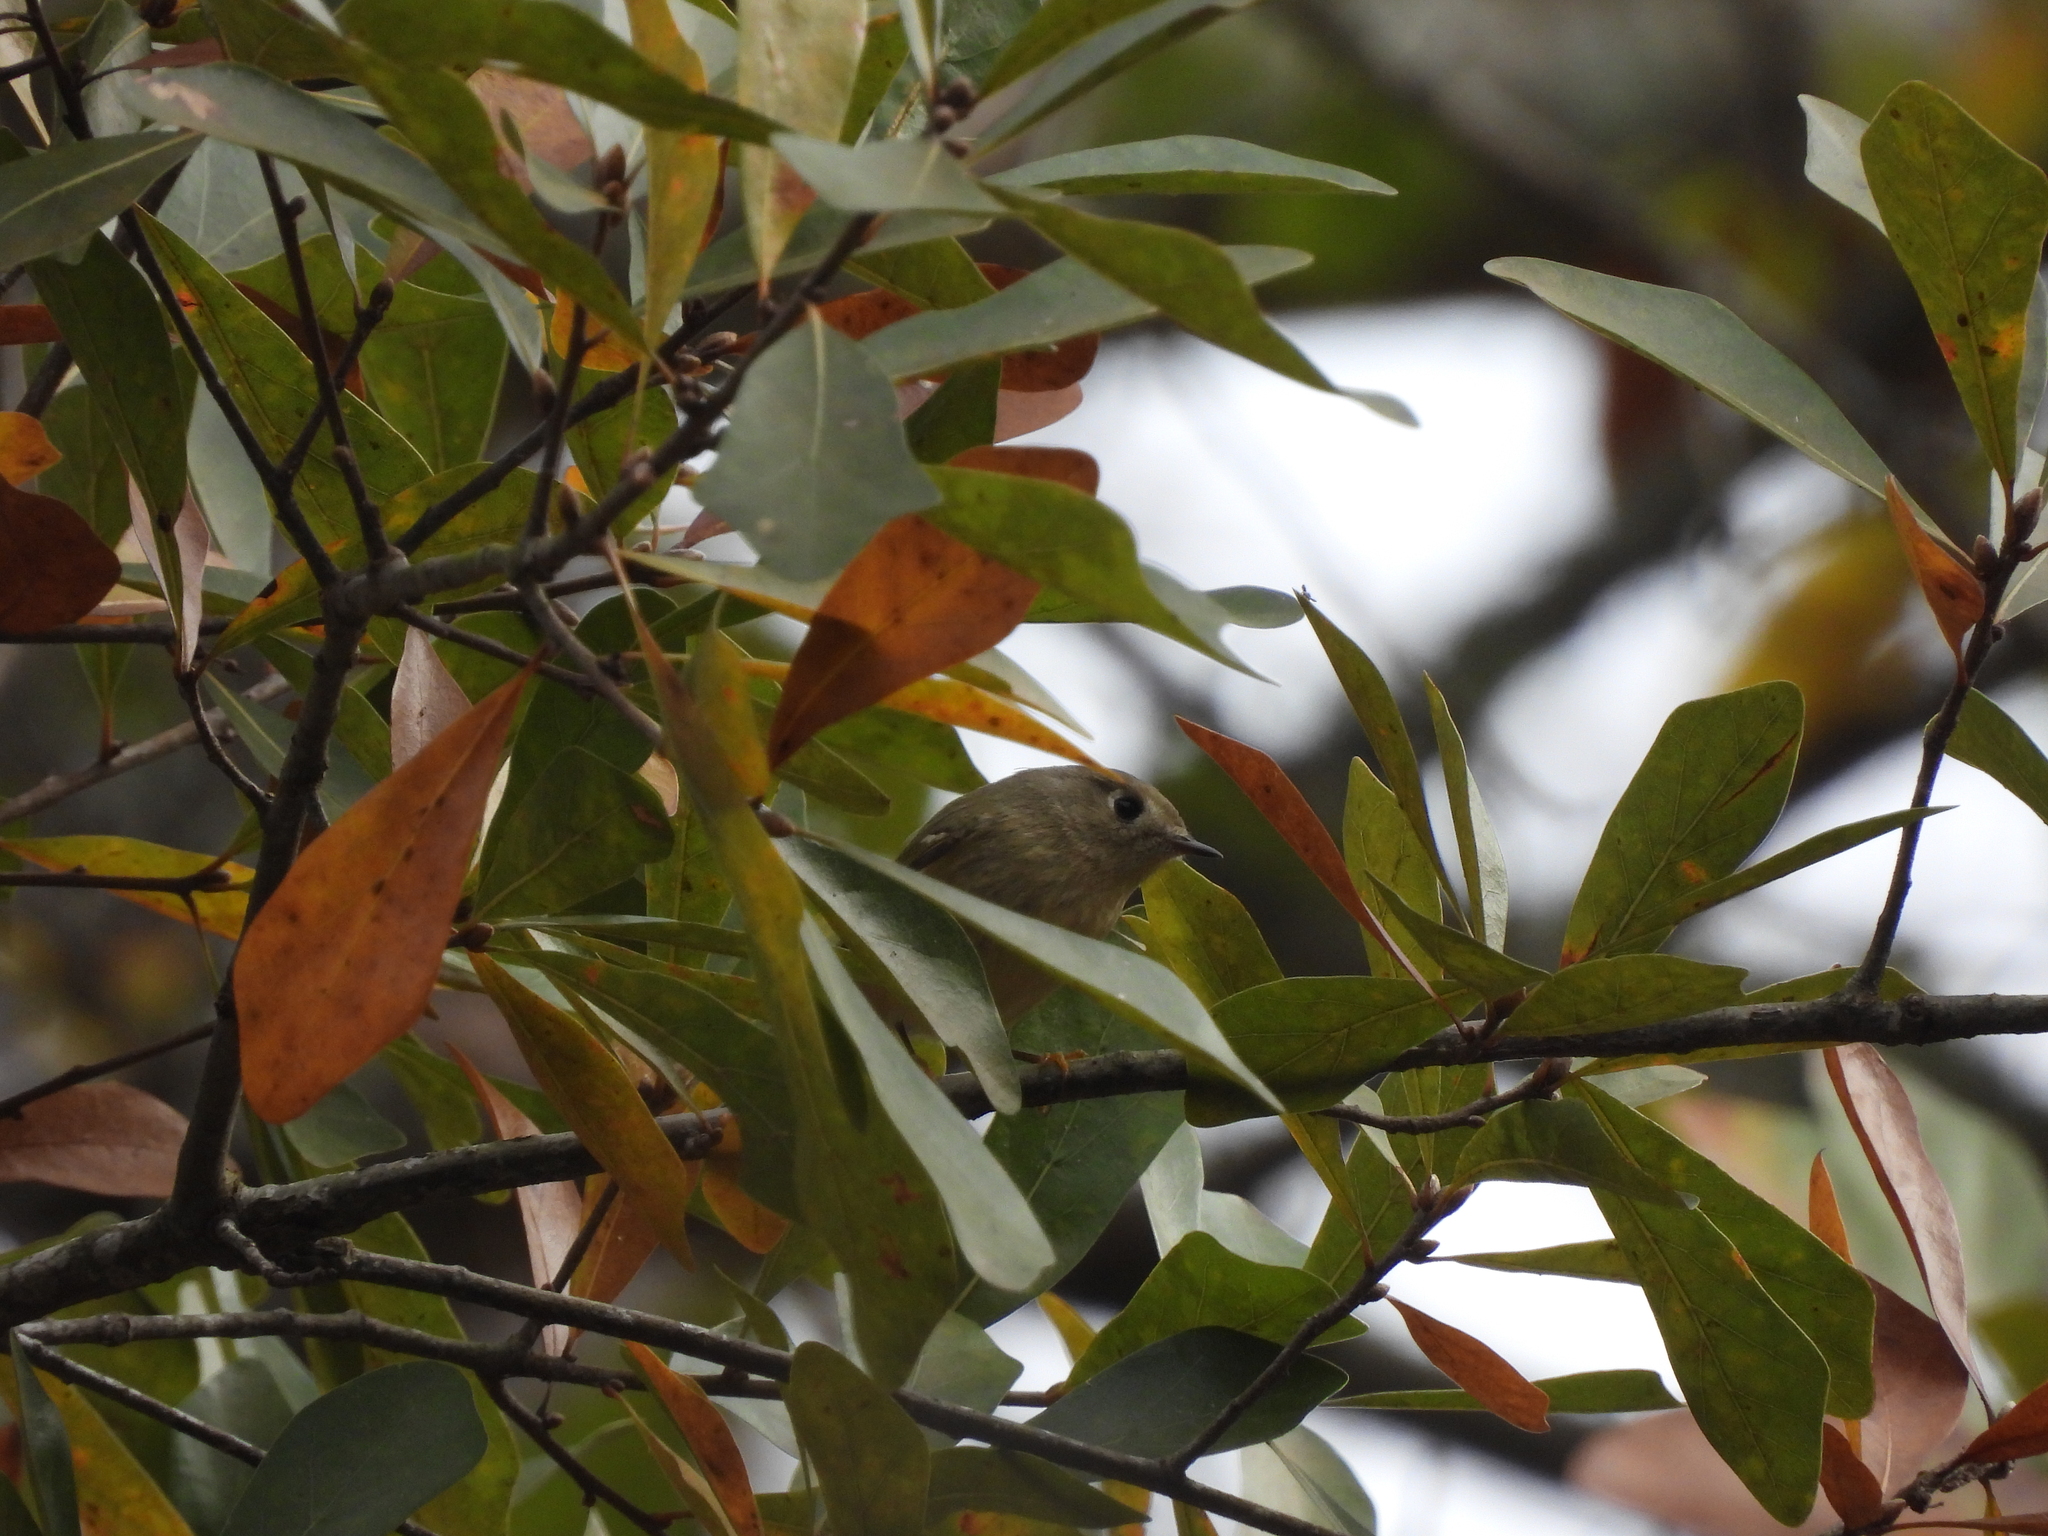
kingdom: Animalia
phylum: Chordata
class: Aves
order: Passeriformes
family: Regulidae
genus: Regulus
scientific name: Regulus calendula
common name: Ruby-crowned kinglet
